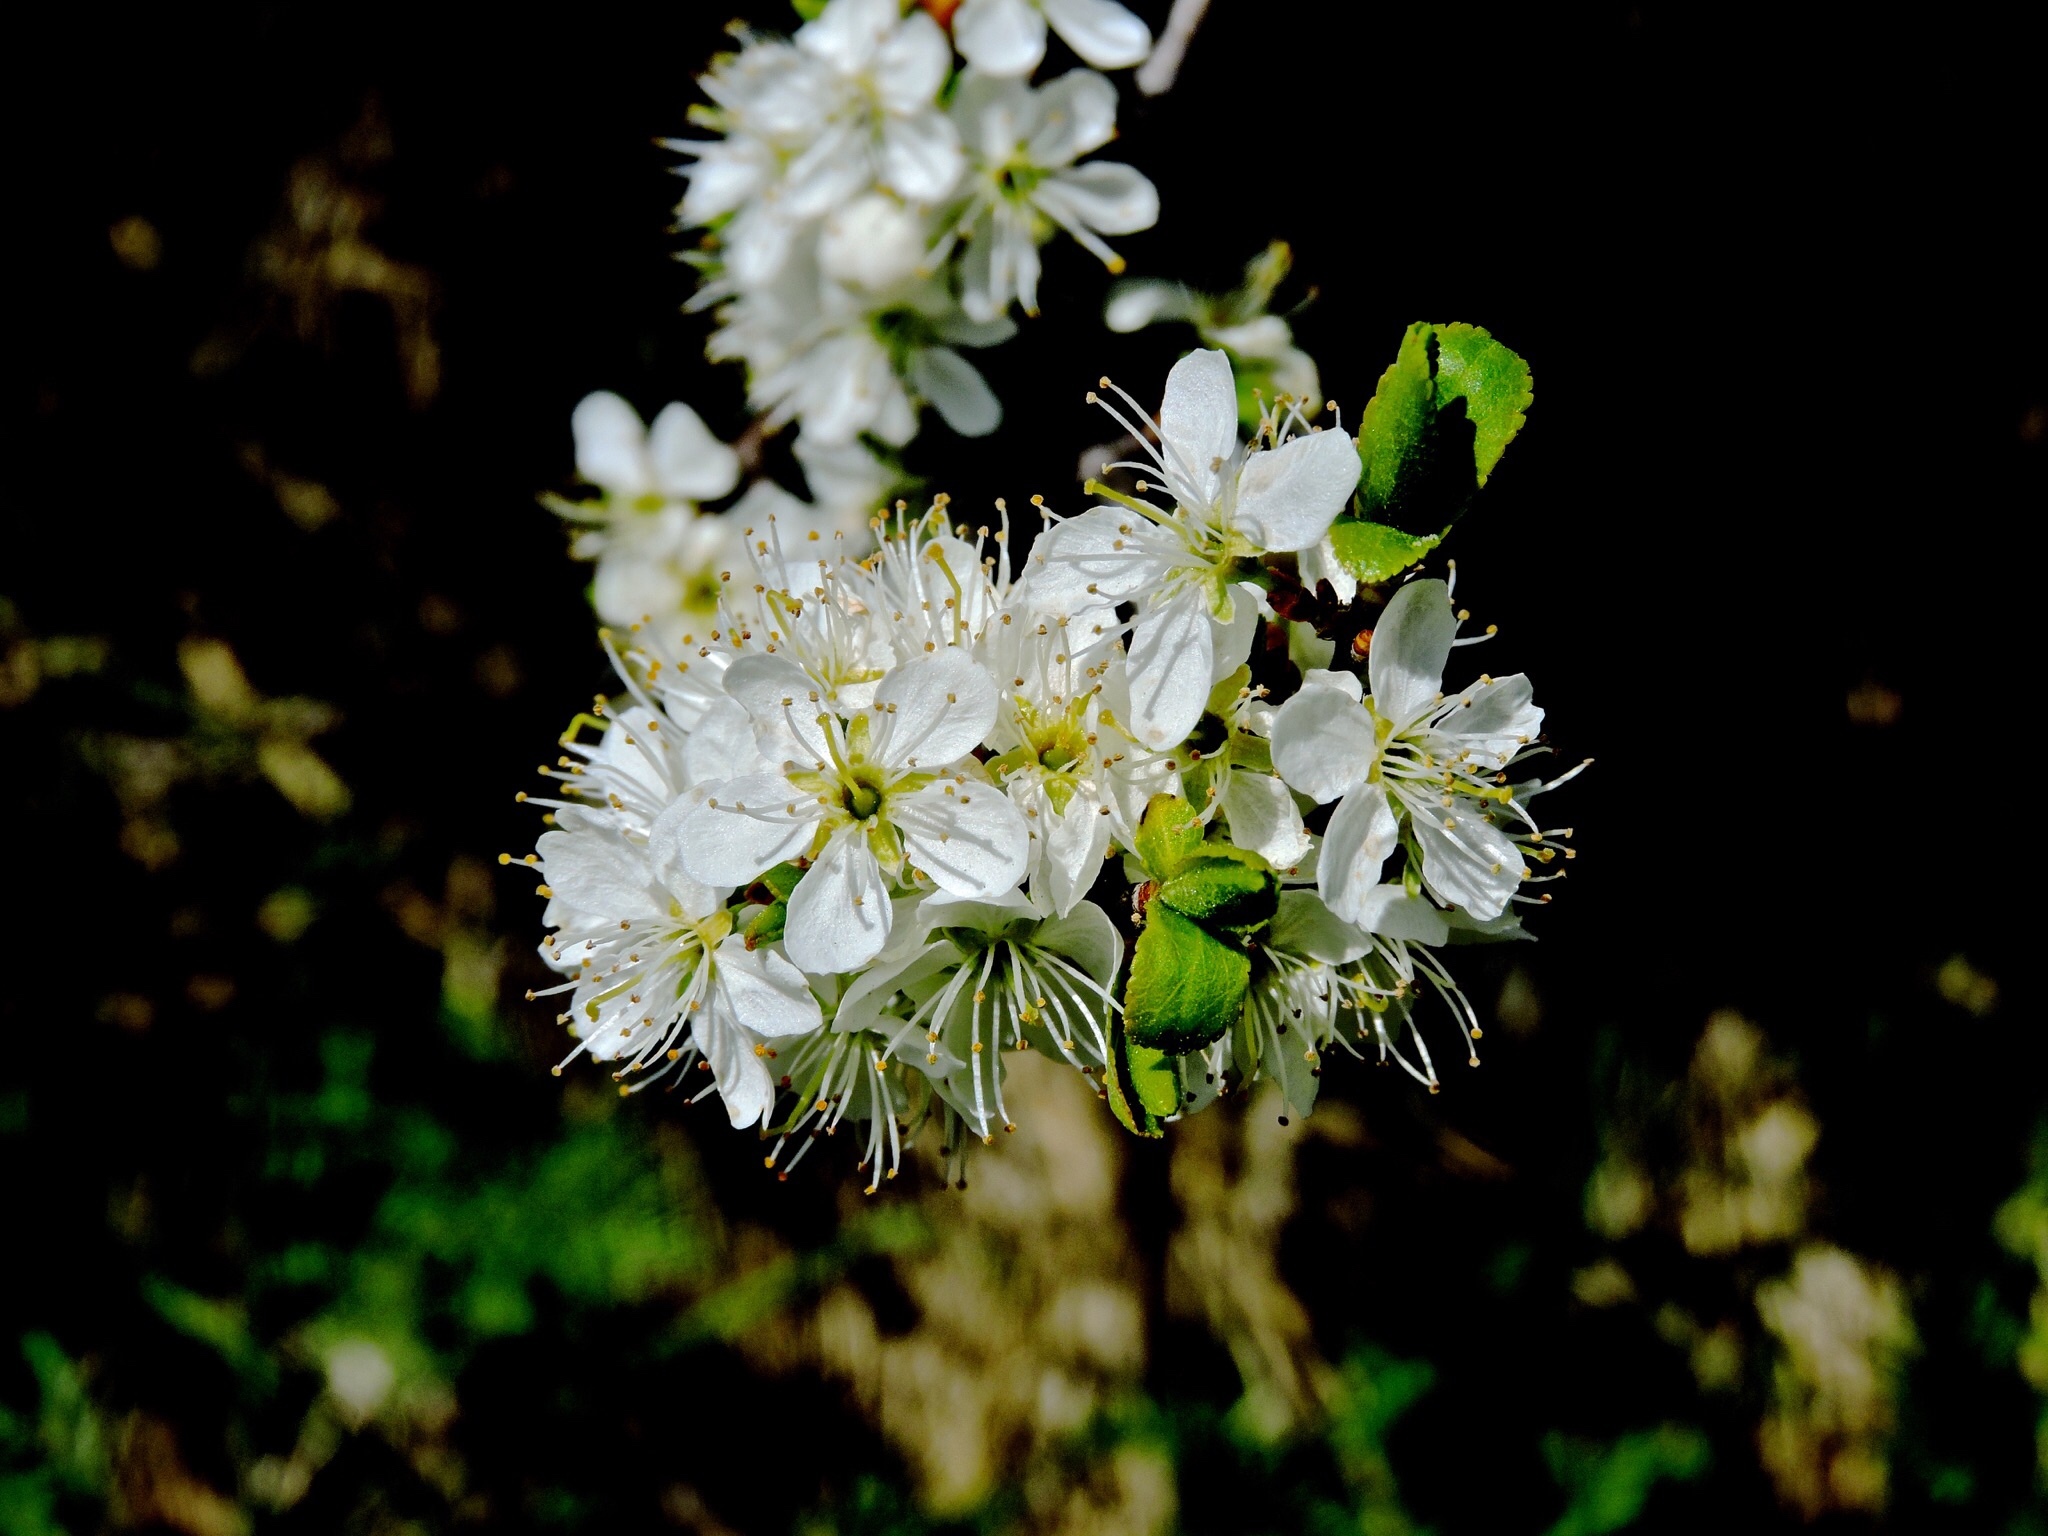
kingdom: Plantae
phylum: Tracheophyta
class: Magnoliopsida
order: Rosales
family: Rosaceae
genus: Prunus
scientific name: Prunus spinosa
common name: Blackthorn
